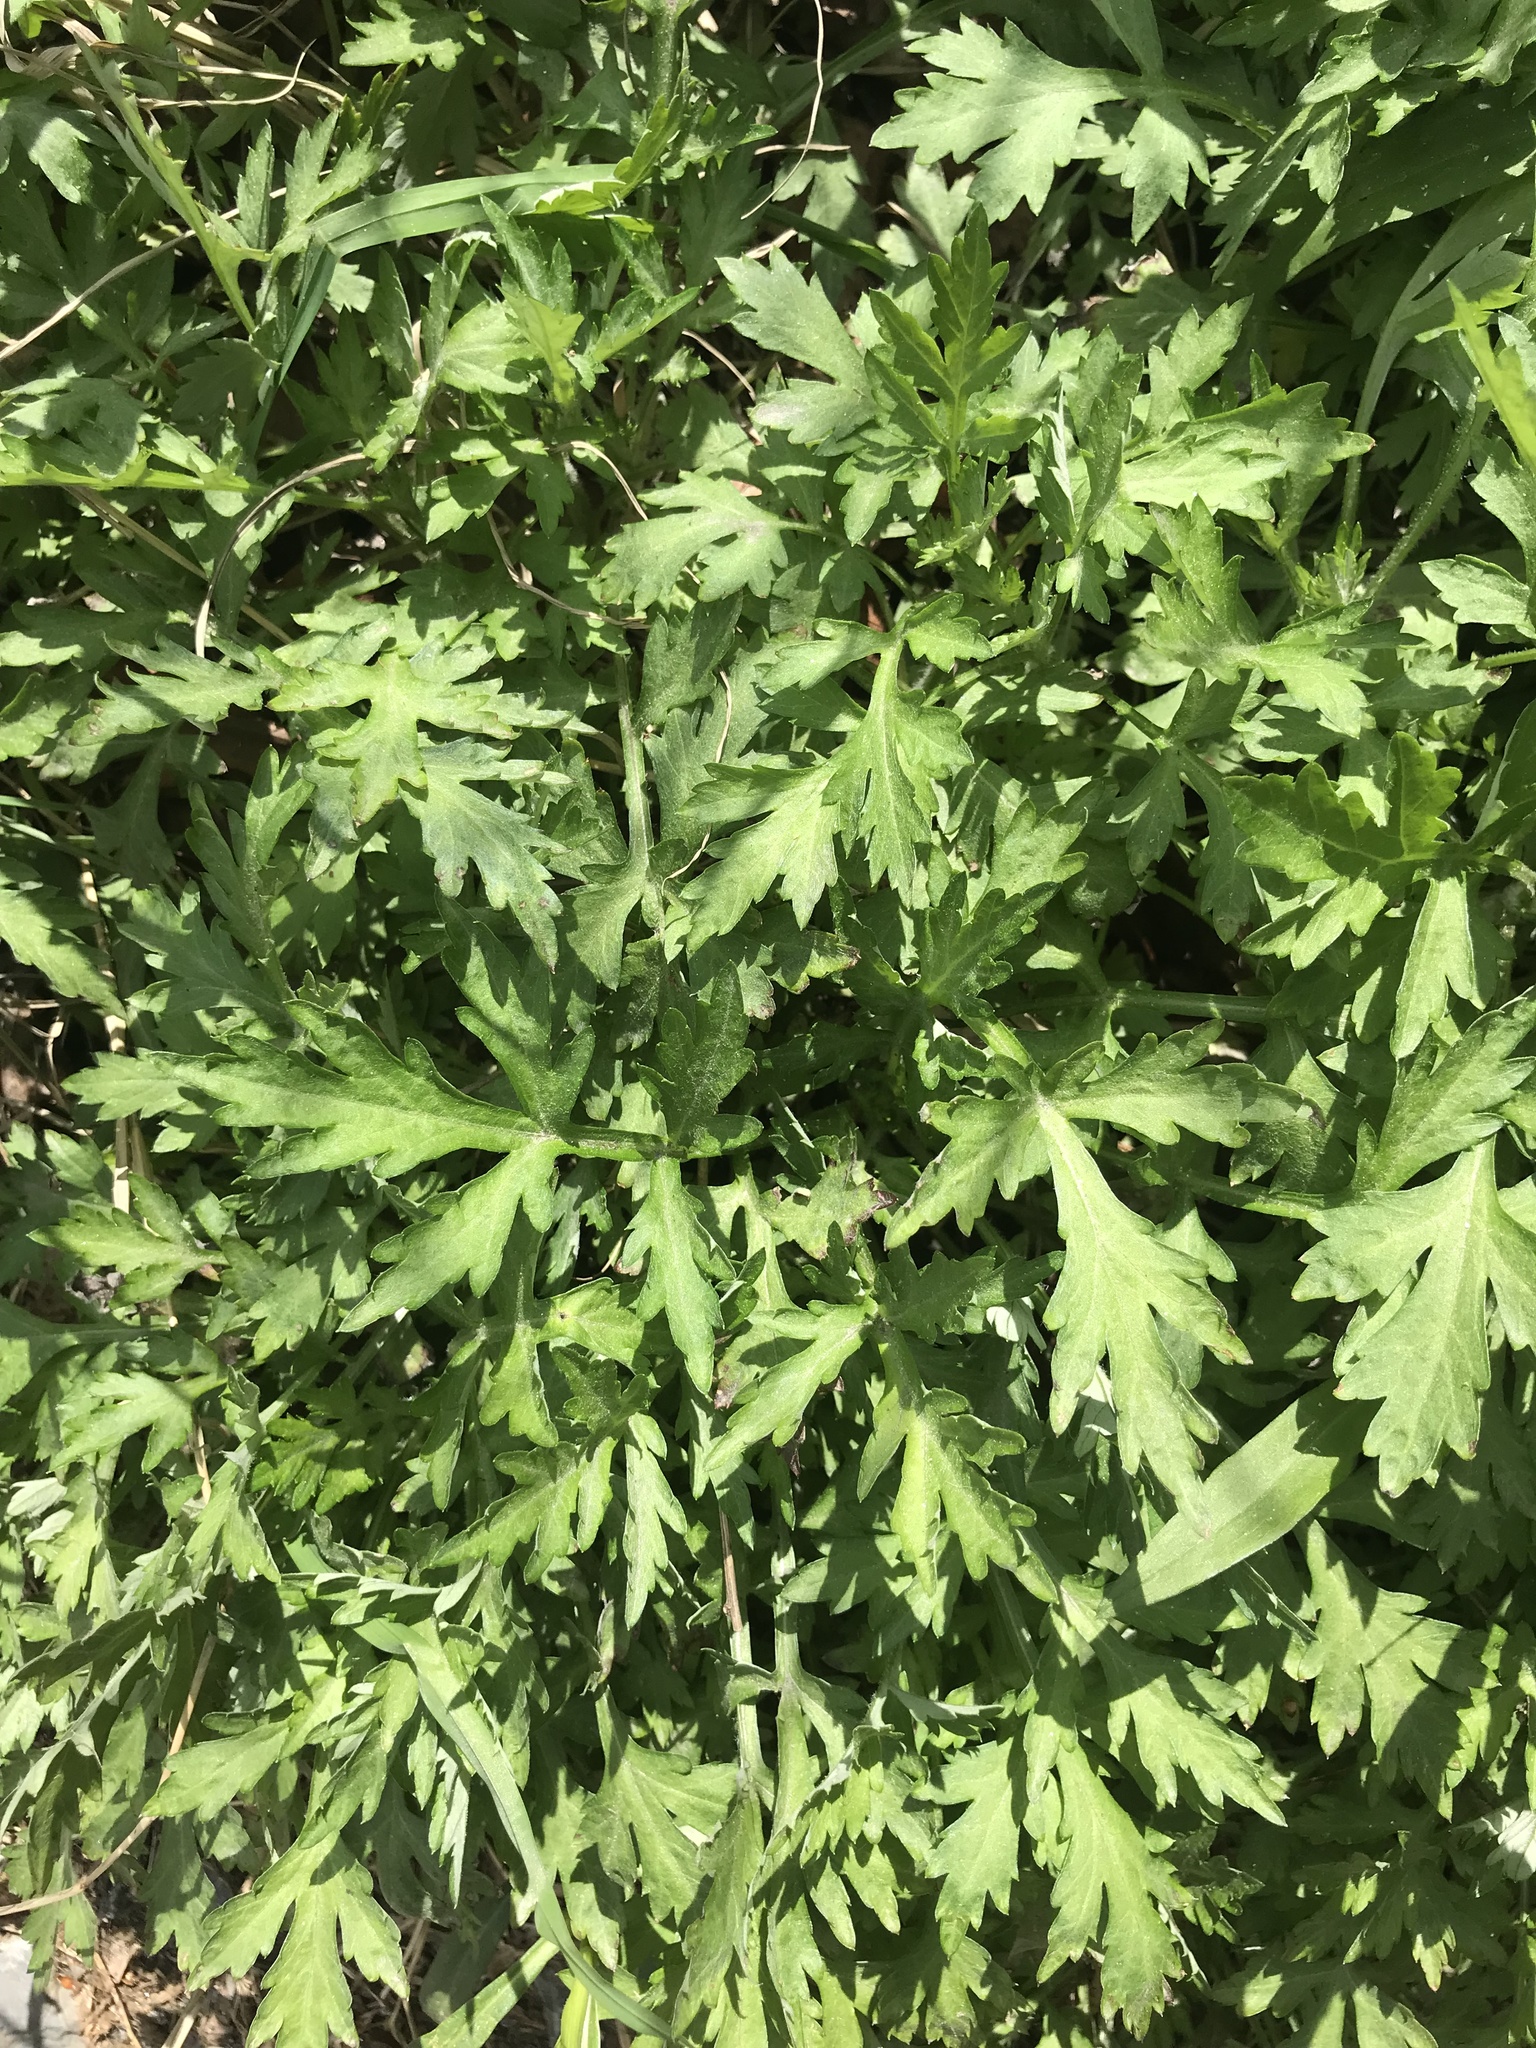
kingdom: Plantae
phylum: Tracheophyta
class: Magnoliopsida
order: Asterales
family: Asteraceae
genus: Artemisia
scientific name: Artemisia vulgaris
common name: Mugwort
